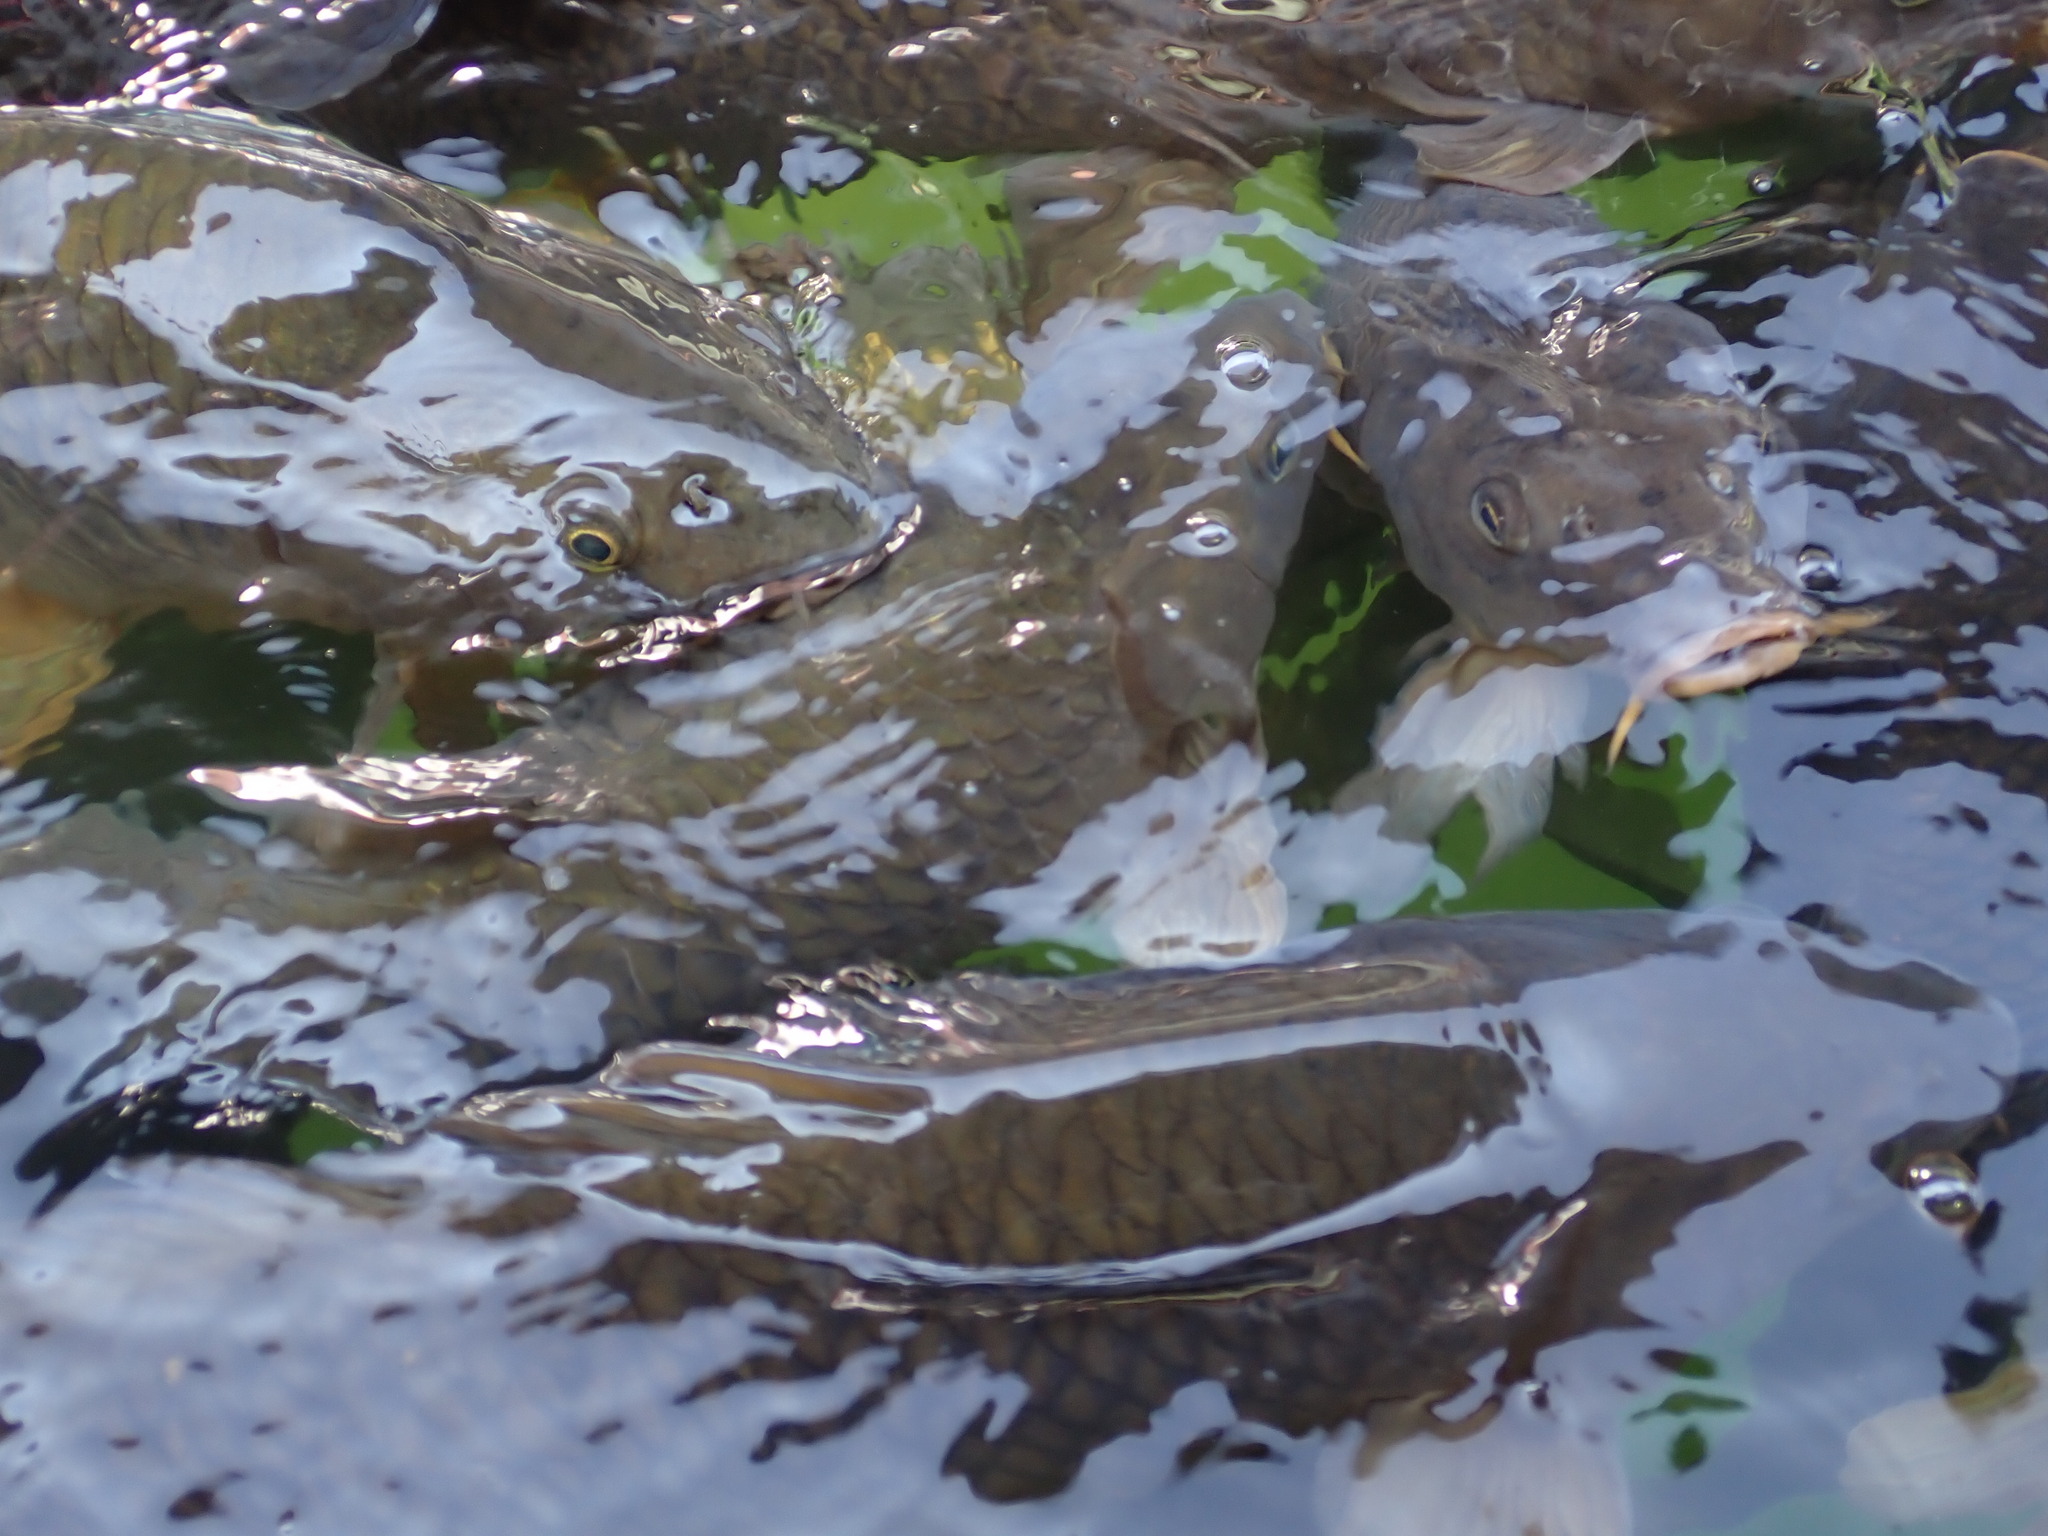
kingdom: Animalia
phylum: Chordata
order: Cypriniformes
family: Cyprinidae
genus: Cyprinus
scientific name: Cyprinus carpio
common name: Common carp
